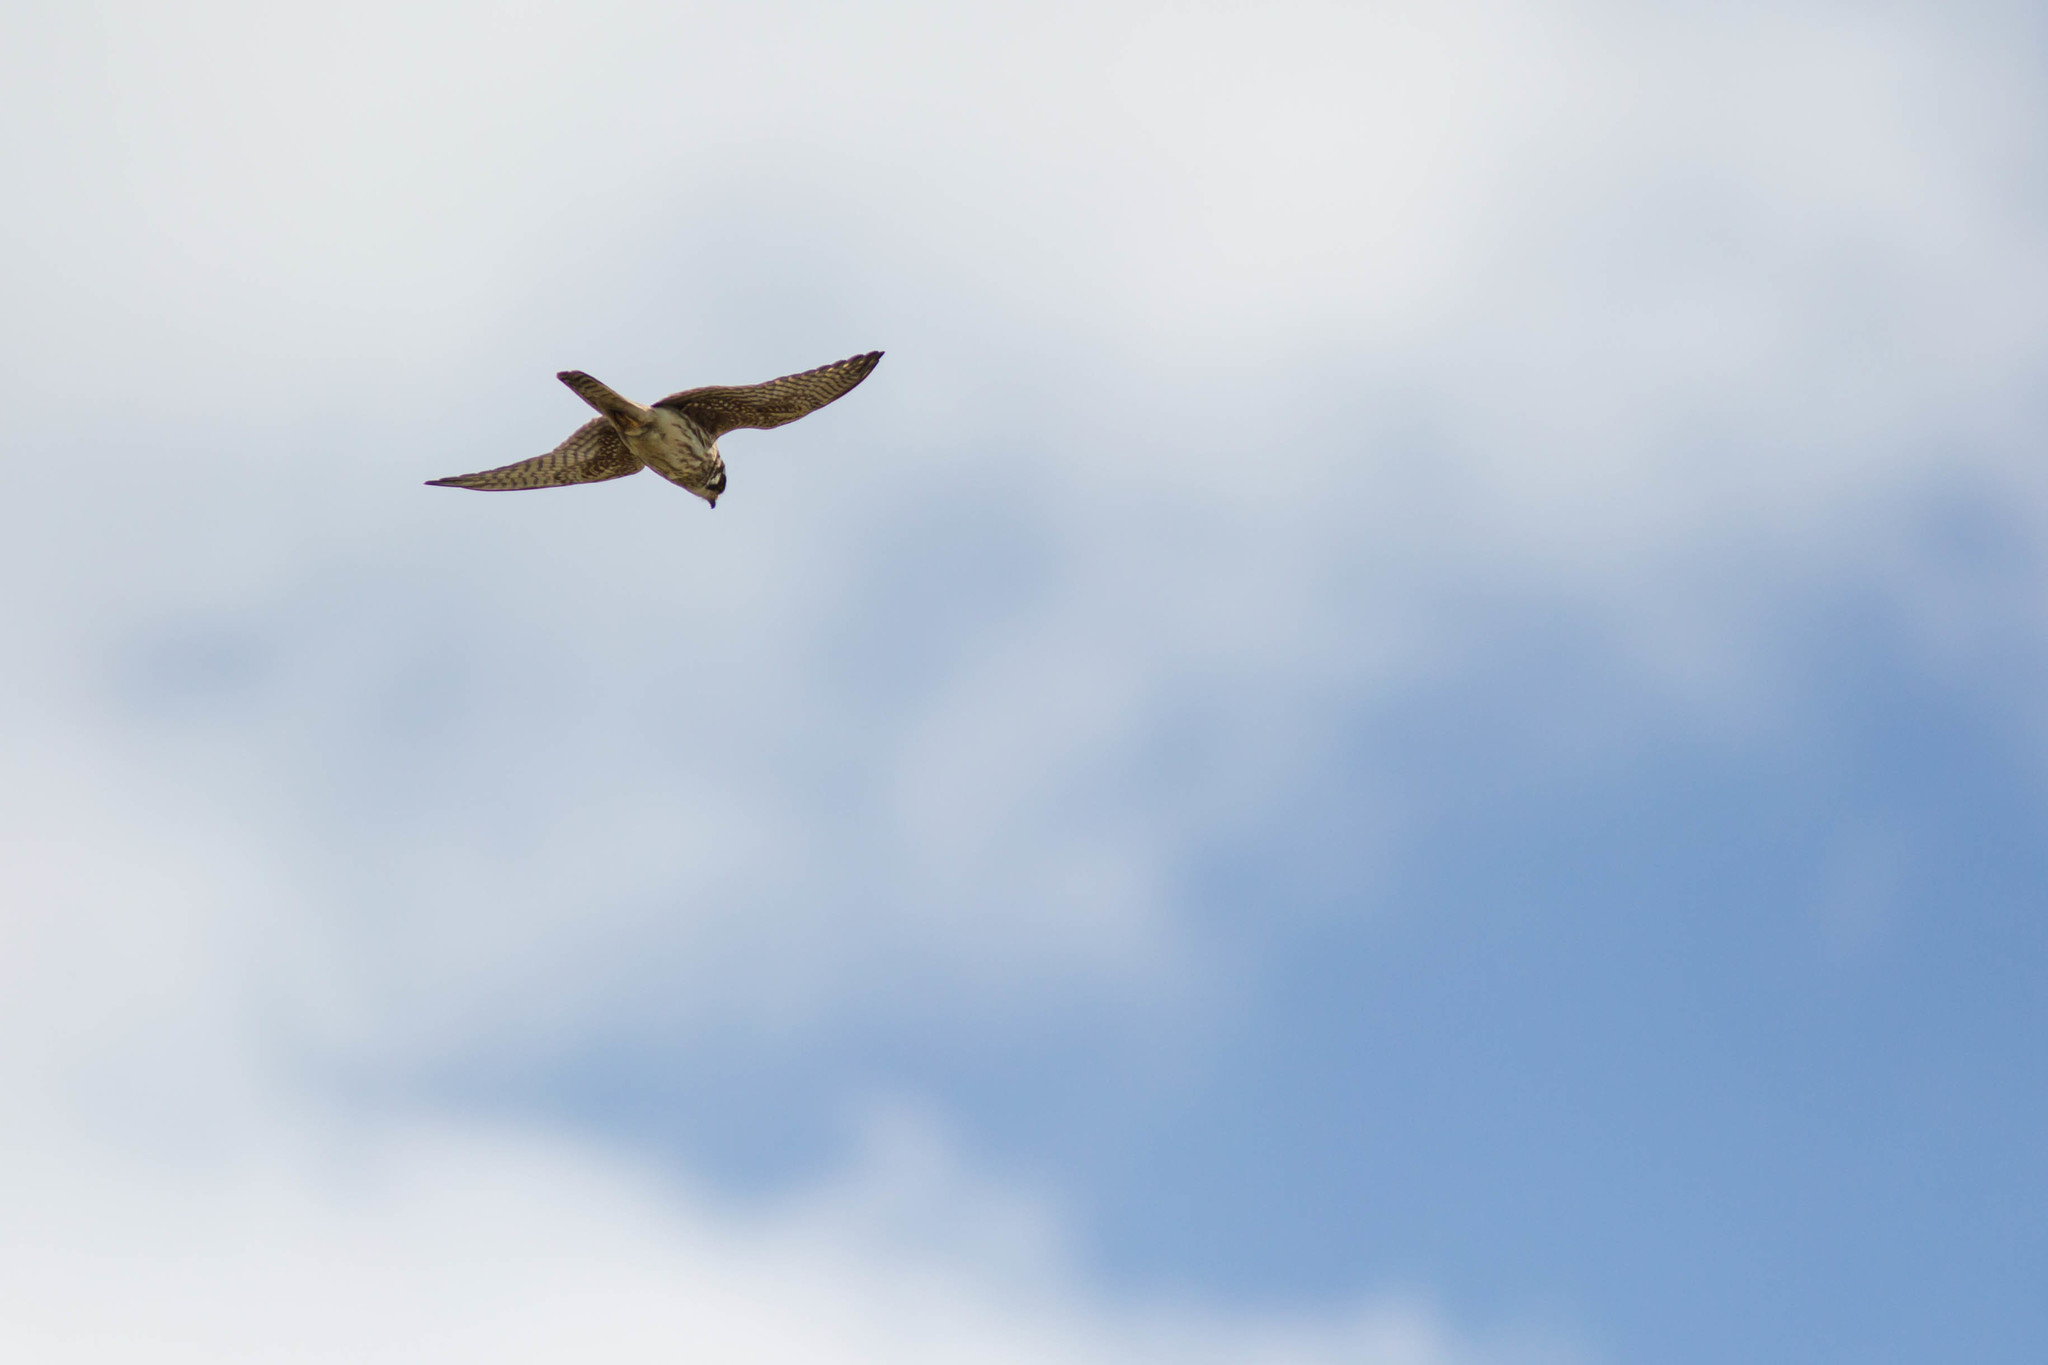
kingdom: Animalia
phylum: Chordata
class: Aves
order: Falconiformes
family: Falconidae
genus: Falco
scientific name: Falco sparverius
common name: American kestrel
